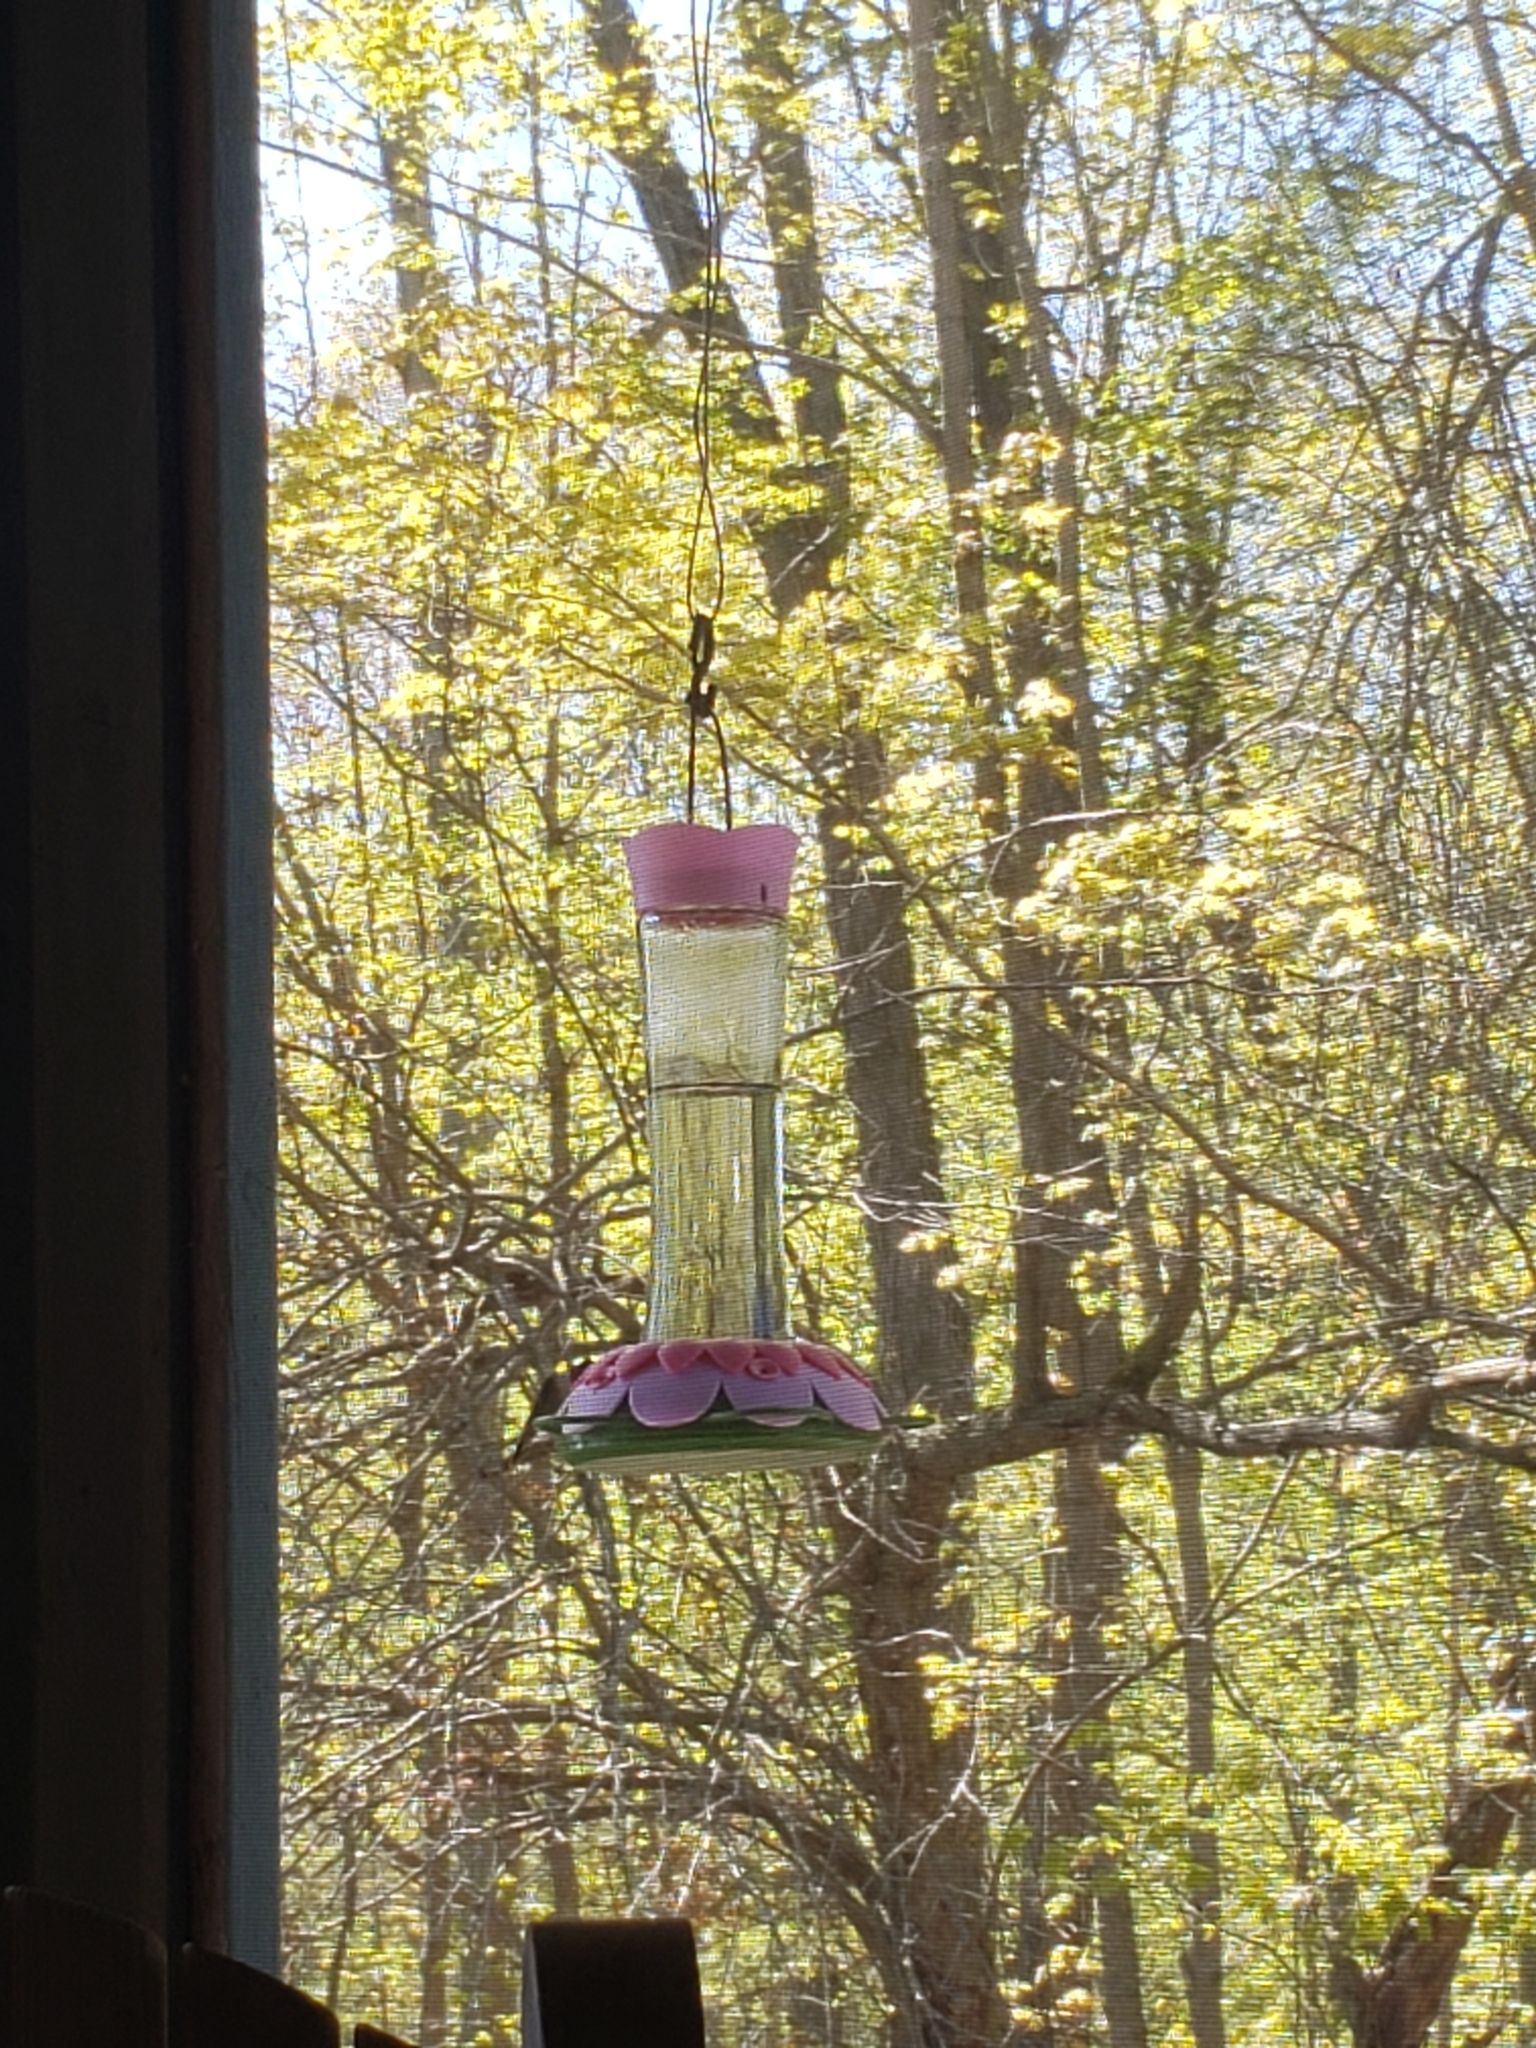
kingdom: Animalia
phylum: Chordata
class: Aves
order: Apodiformes
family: Trochilidae
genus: Archilochus
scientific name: Archilochus colubris
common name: Ruby-throated hummingbird
